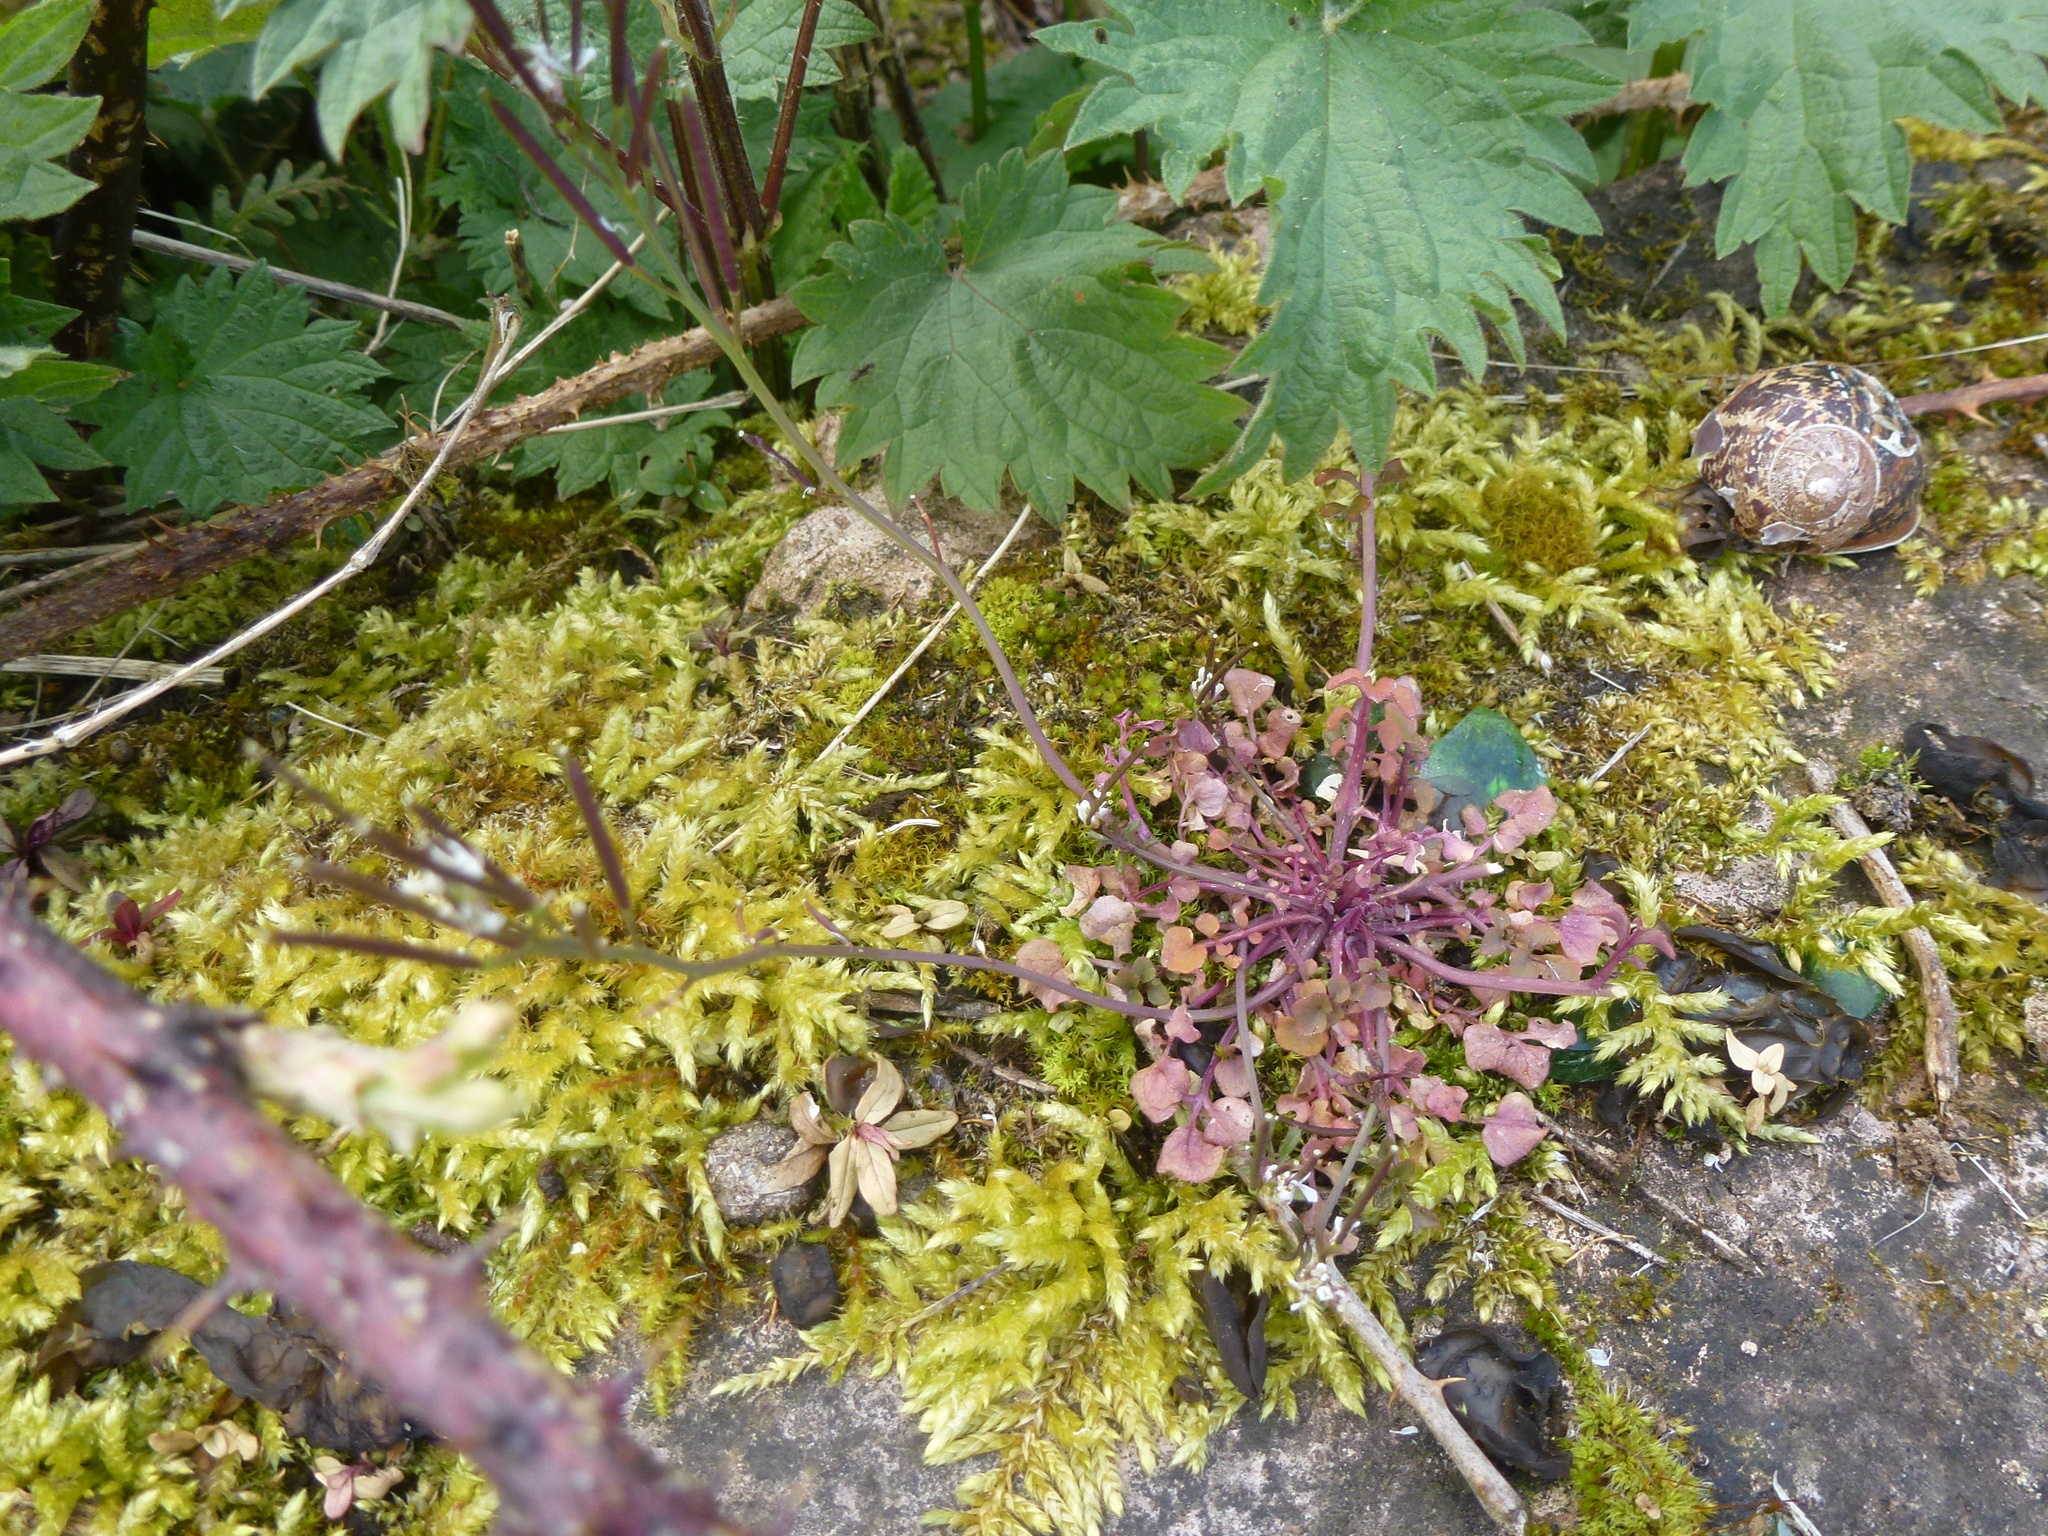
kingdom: Plantae
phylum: Tracheophyta
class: Magnoliopsida
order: Brassicales
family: Brassicaceae
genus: Arabidopsis
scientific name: Arabidopsis thaliana
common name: Thale cress
